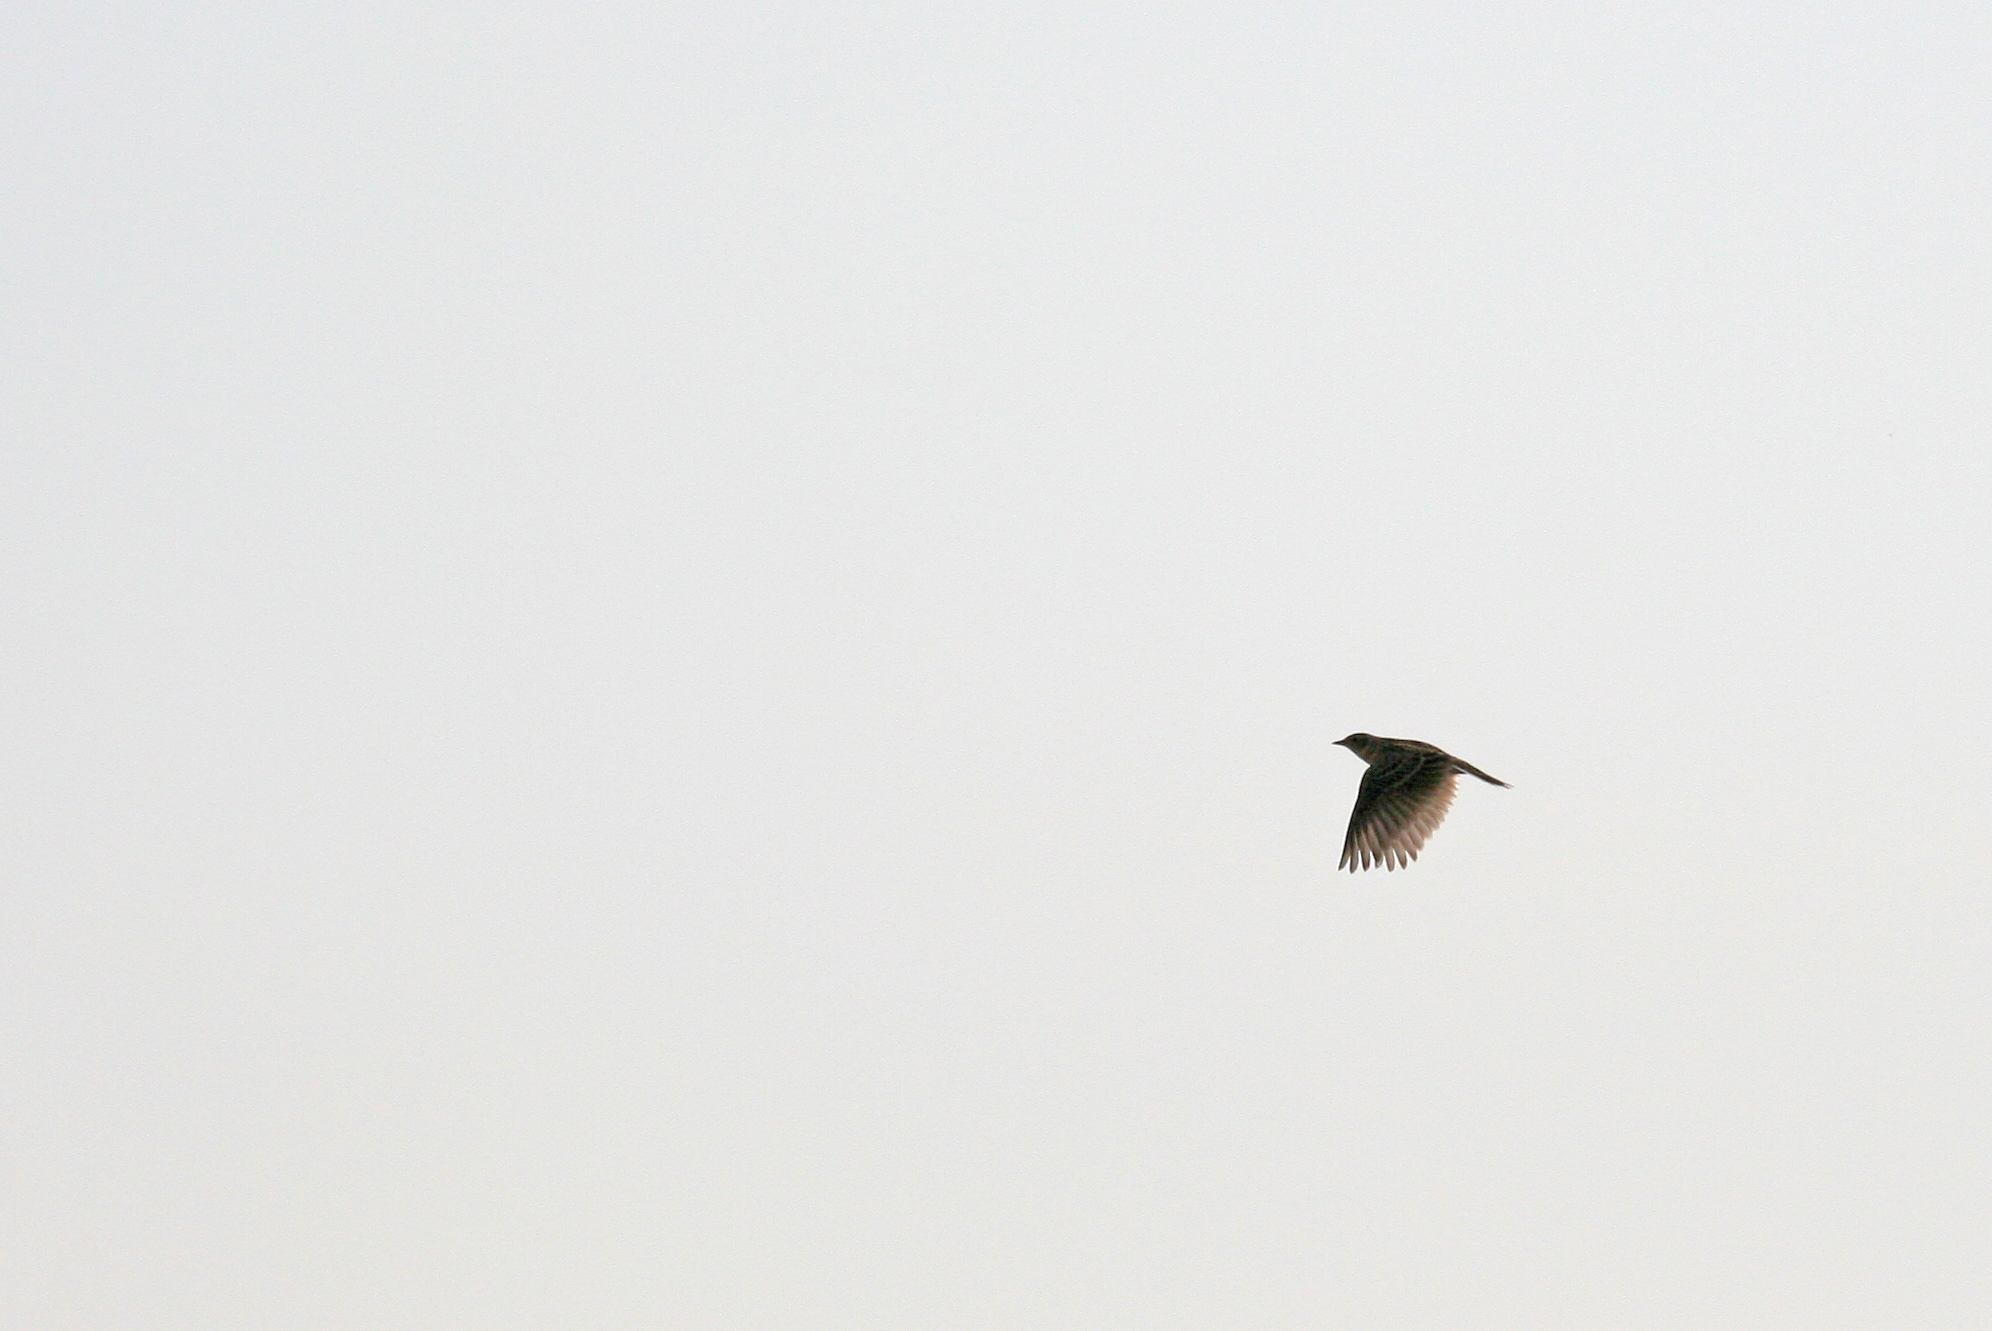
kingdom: Animalia
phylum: Chordata
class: Aves
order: Passeriformes
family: Alaudidae
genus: Alauda
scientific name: Alauda arvensis
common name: Eurasian skylark
